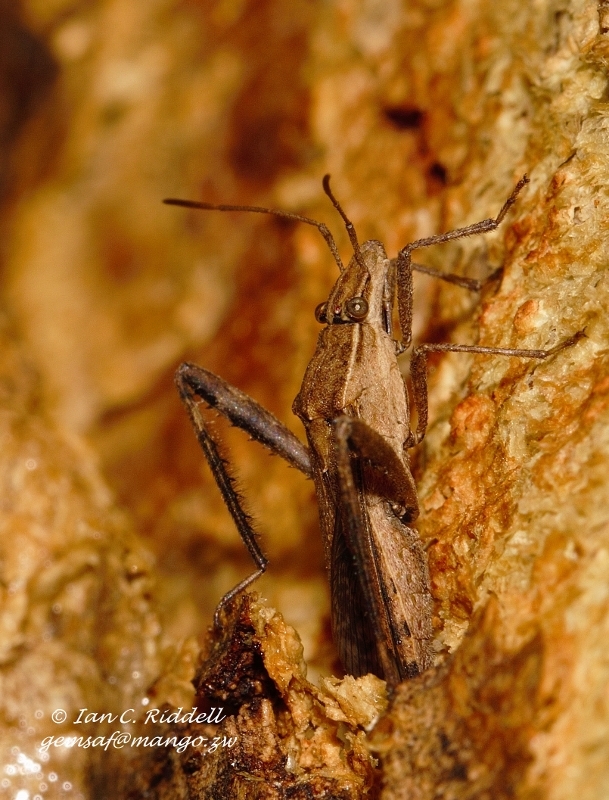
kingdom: Animalia
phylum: Arthropoda
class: Insecta
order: Hemiptera
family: Alydidae
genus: Nariscus
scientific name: Nariscus cinctiventris
